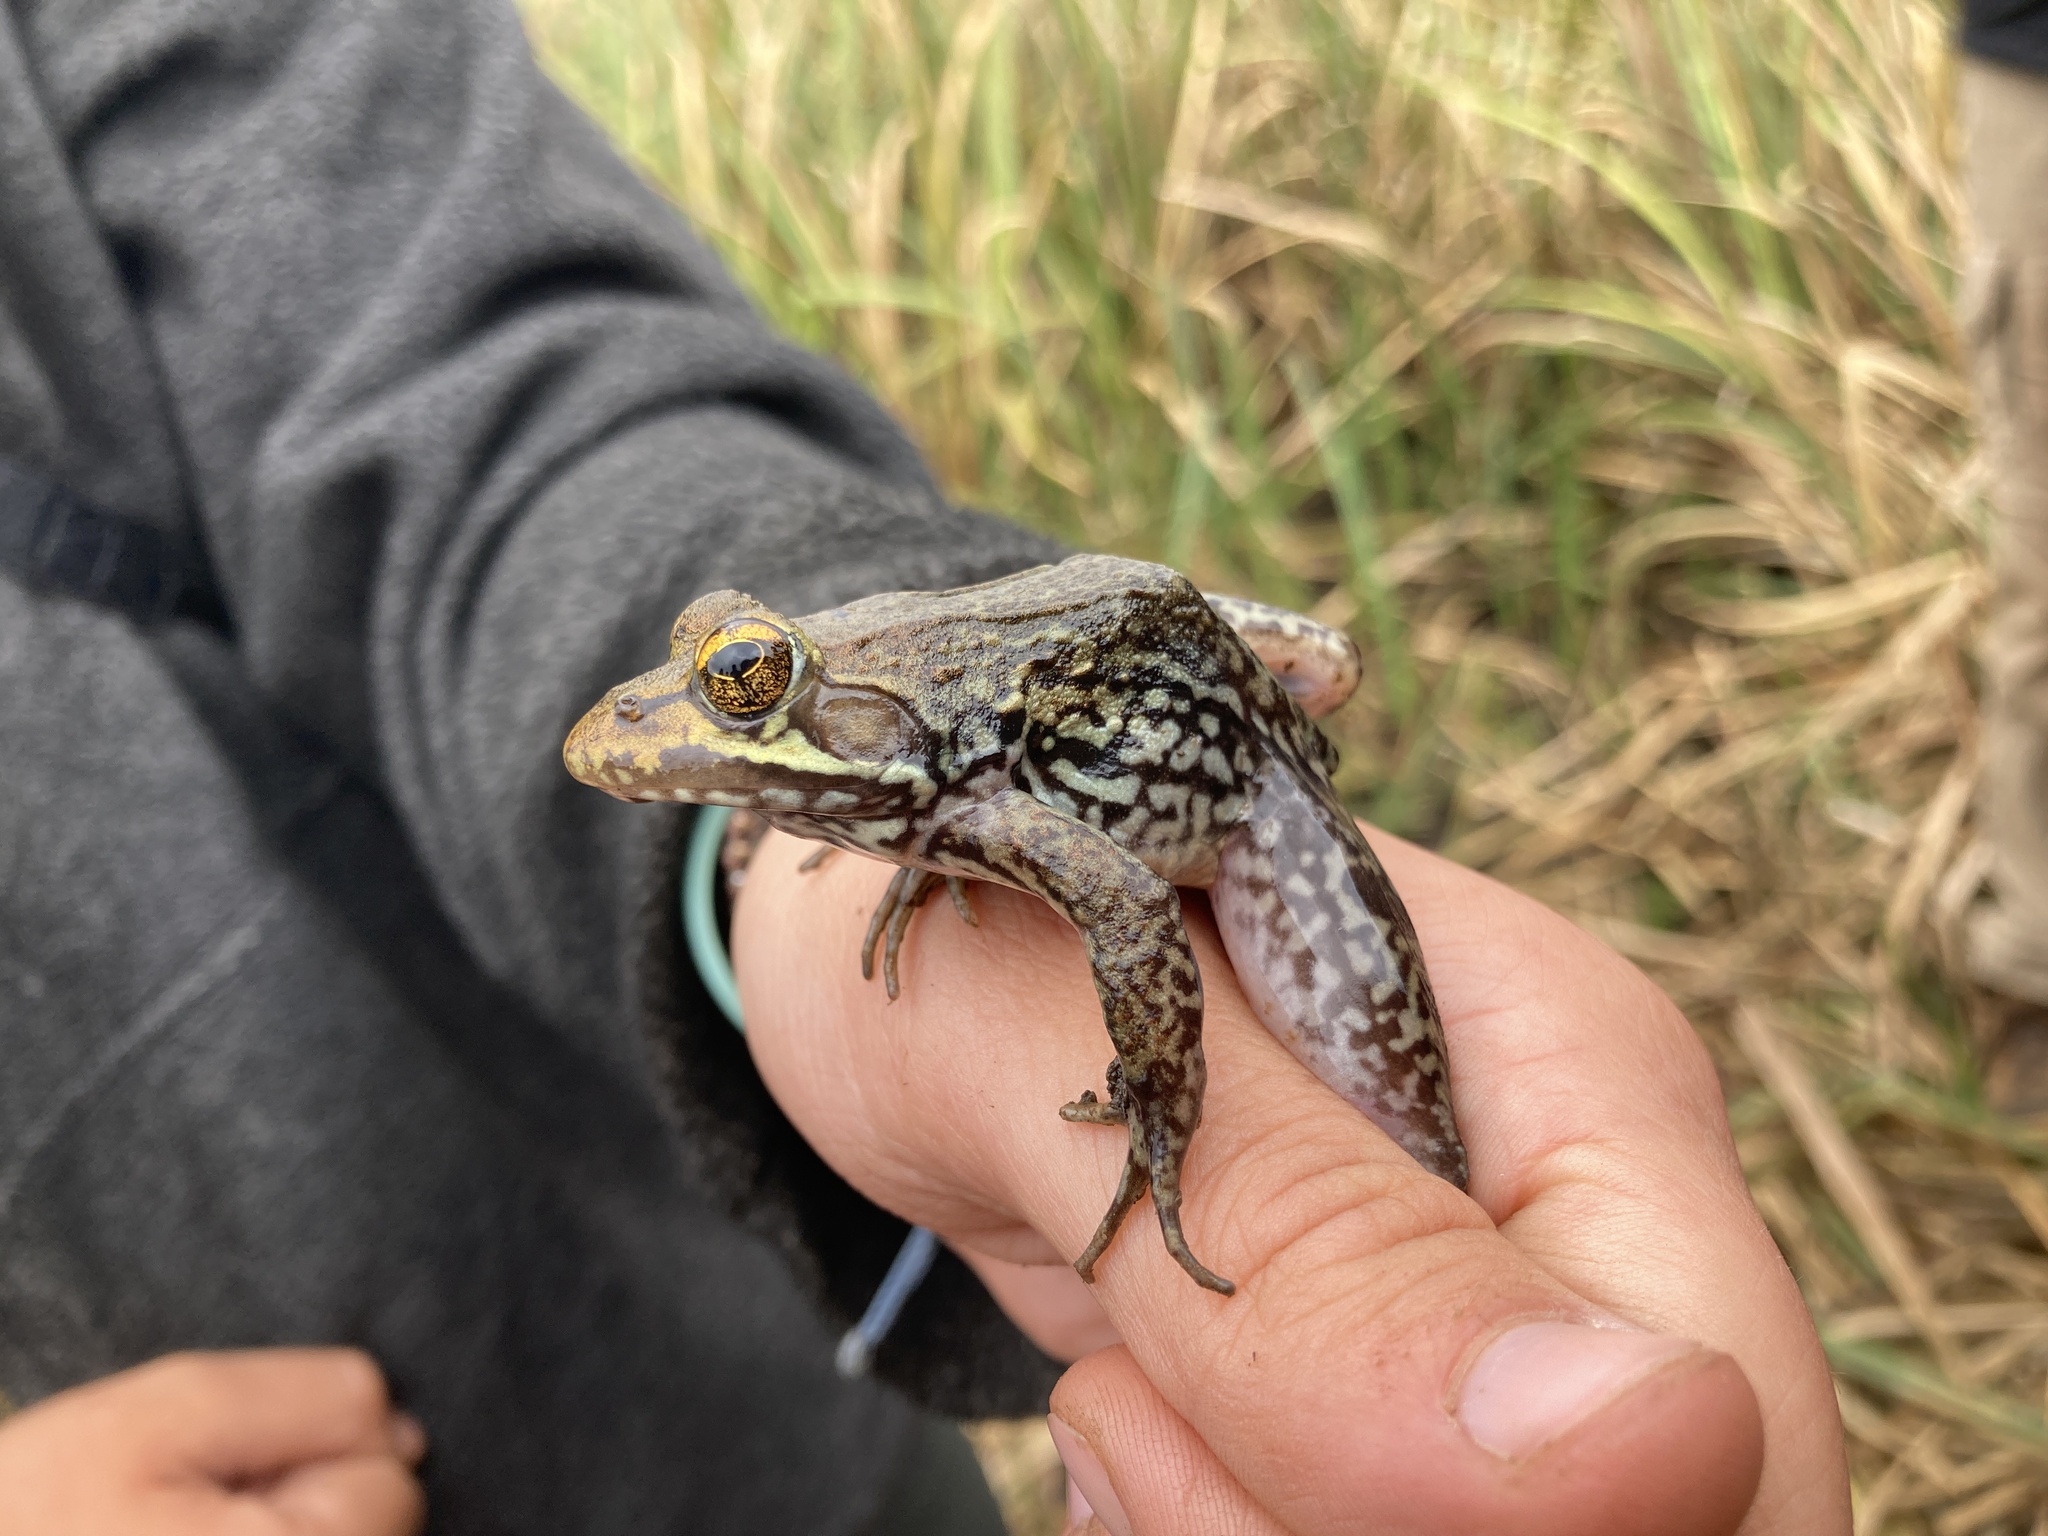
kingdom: Animalia
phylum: Chordata
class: Amphibia
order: Anura
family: Pyxicephalidae
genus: Amietia
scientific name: Amietia nutti
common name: Nutt's river frog
